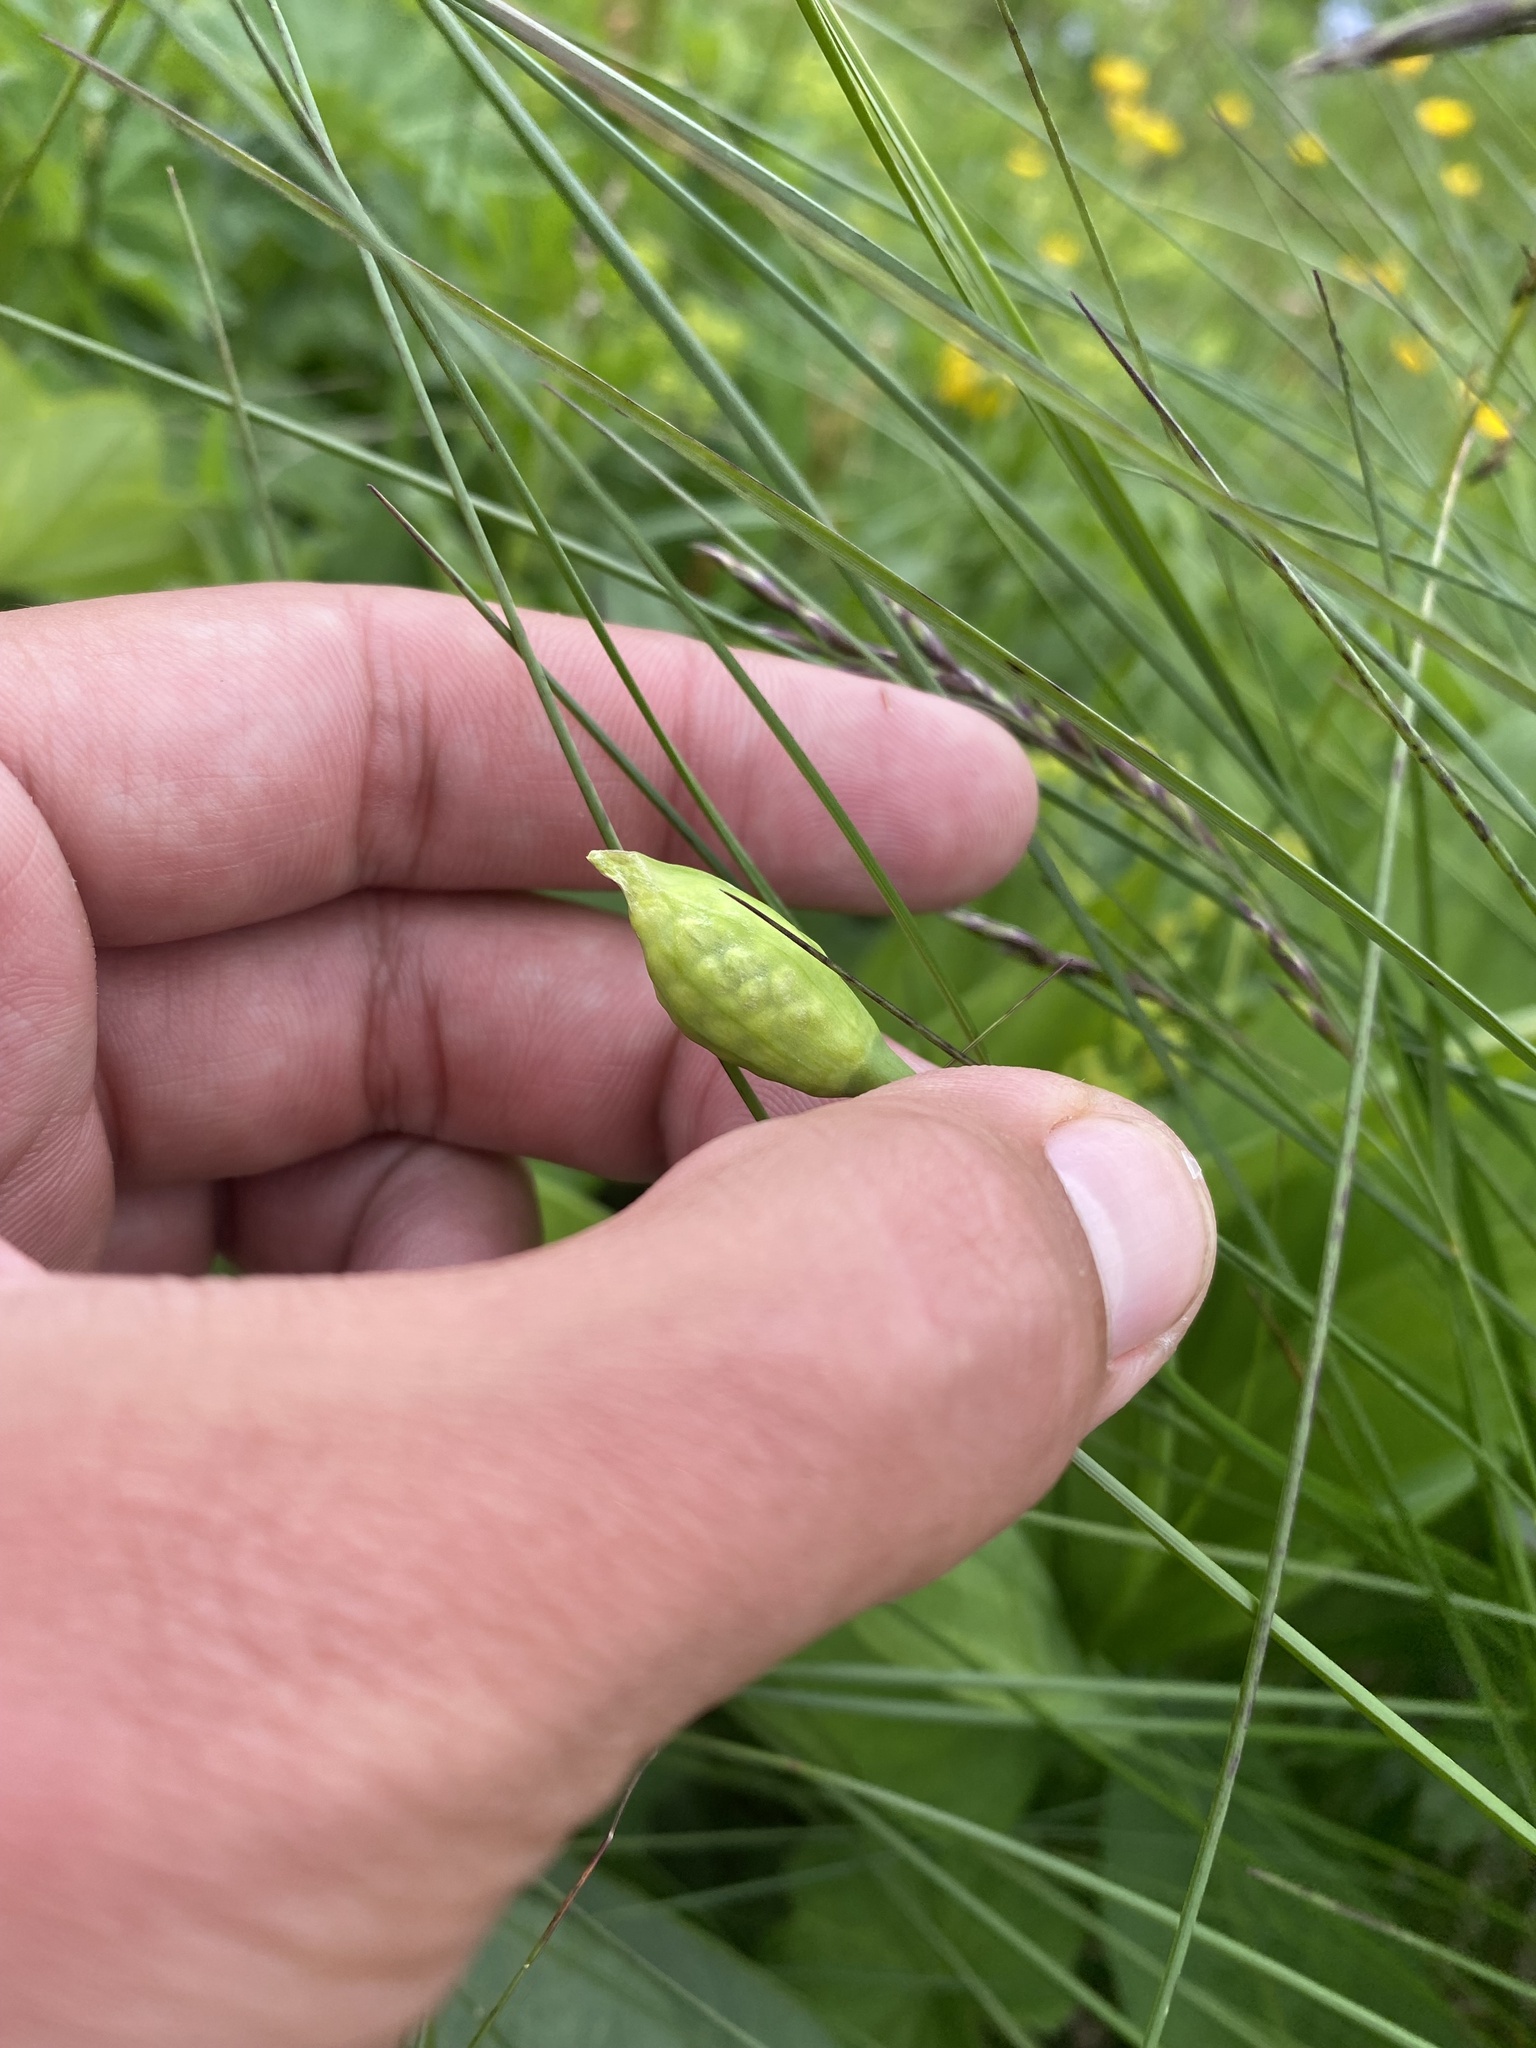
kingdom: Plantae
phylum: Tracheophyta
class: Liliopsida
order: Asparagales
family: Amaryllidaceae
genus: Allium
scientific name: Allium victorialis
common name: Alpine leek
